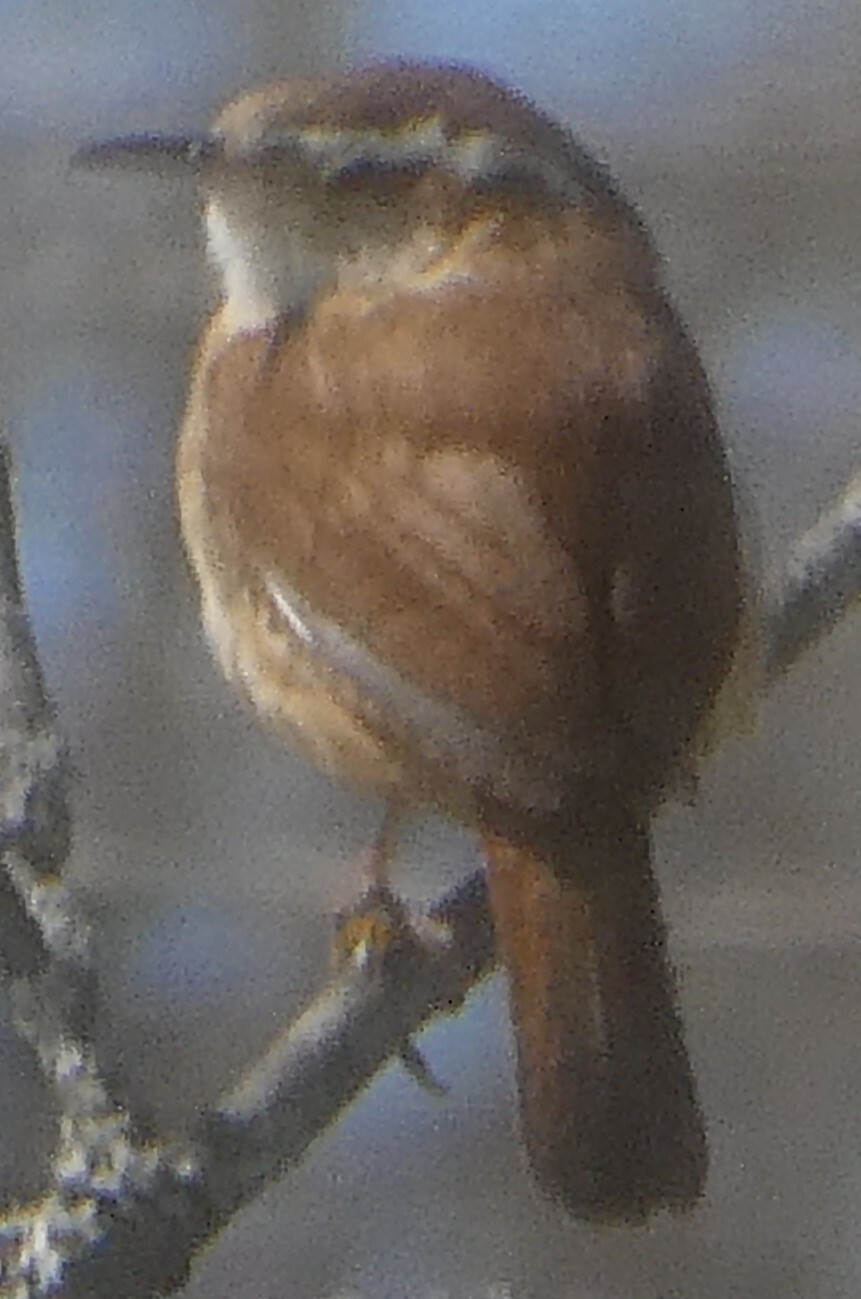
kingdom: Animalia
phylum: Chordata
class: Aves
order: Passeriformes
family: Troglodytidae
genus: Thryothorus
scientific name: Thryothorus ludovicianus
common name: Carolina wren
